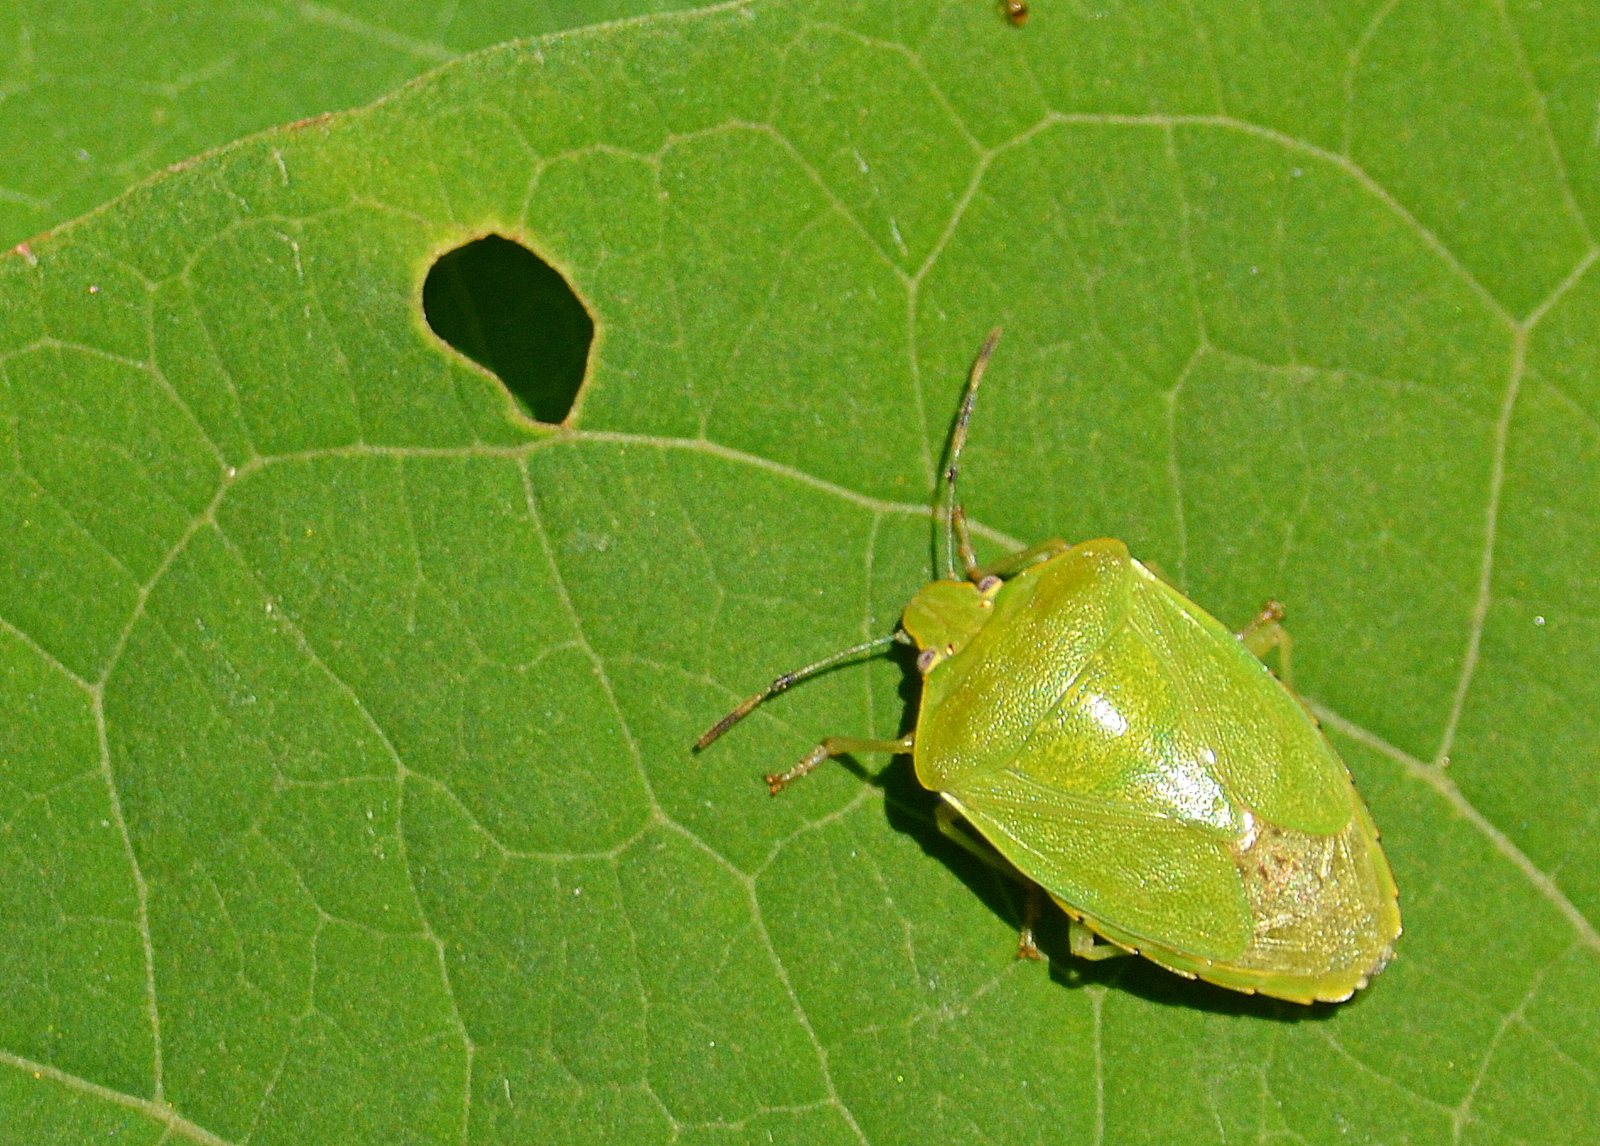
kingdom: Animalia
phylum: Arthropoda
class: Insecta
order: Hemiptera
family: Pentatomidae
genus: Chinavia
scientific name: Chinavia hilaris
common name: Green stink bug
